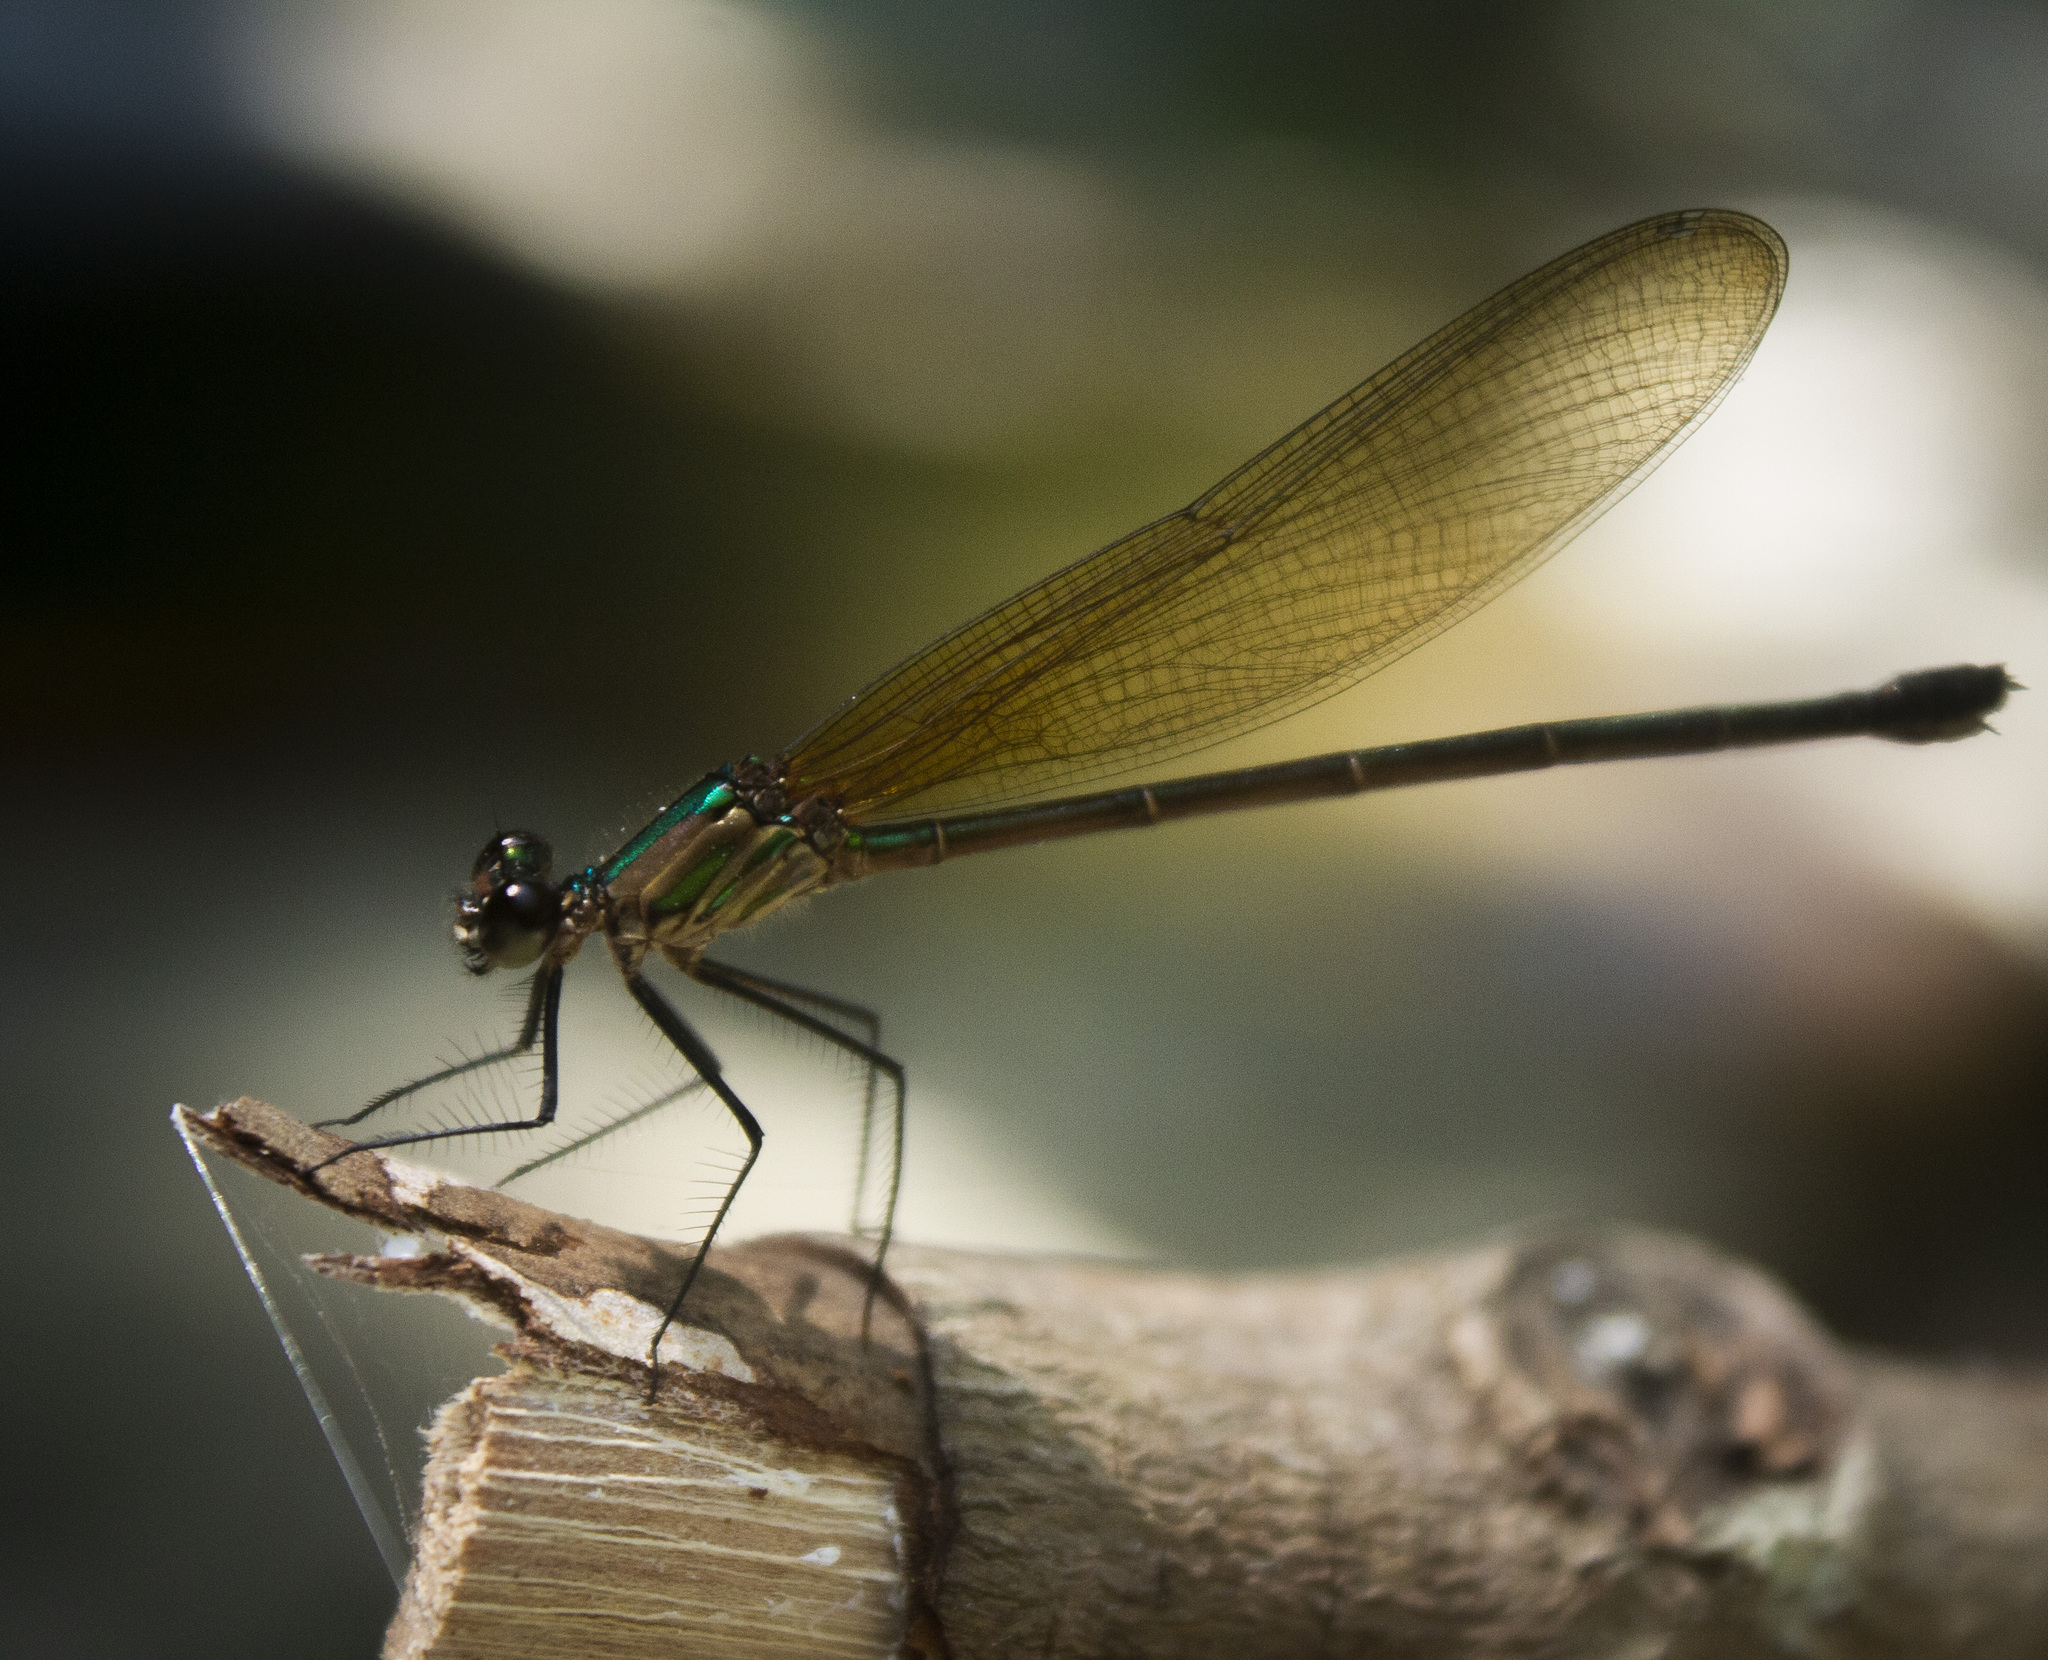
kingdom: Animalia
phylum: Arthropoda
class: Insecta
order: Odonata
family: Calopterygidae
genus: Hetaerina
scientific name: Hetaerina occisa
